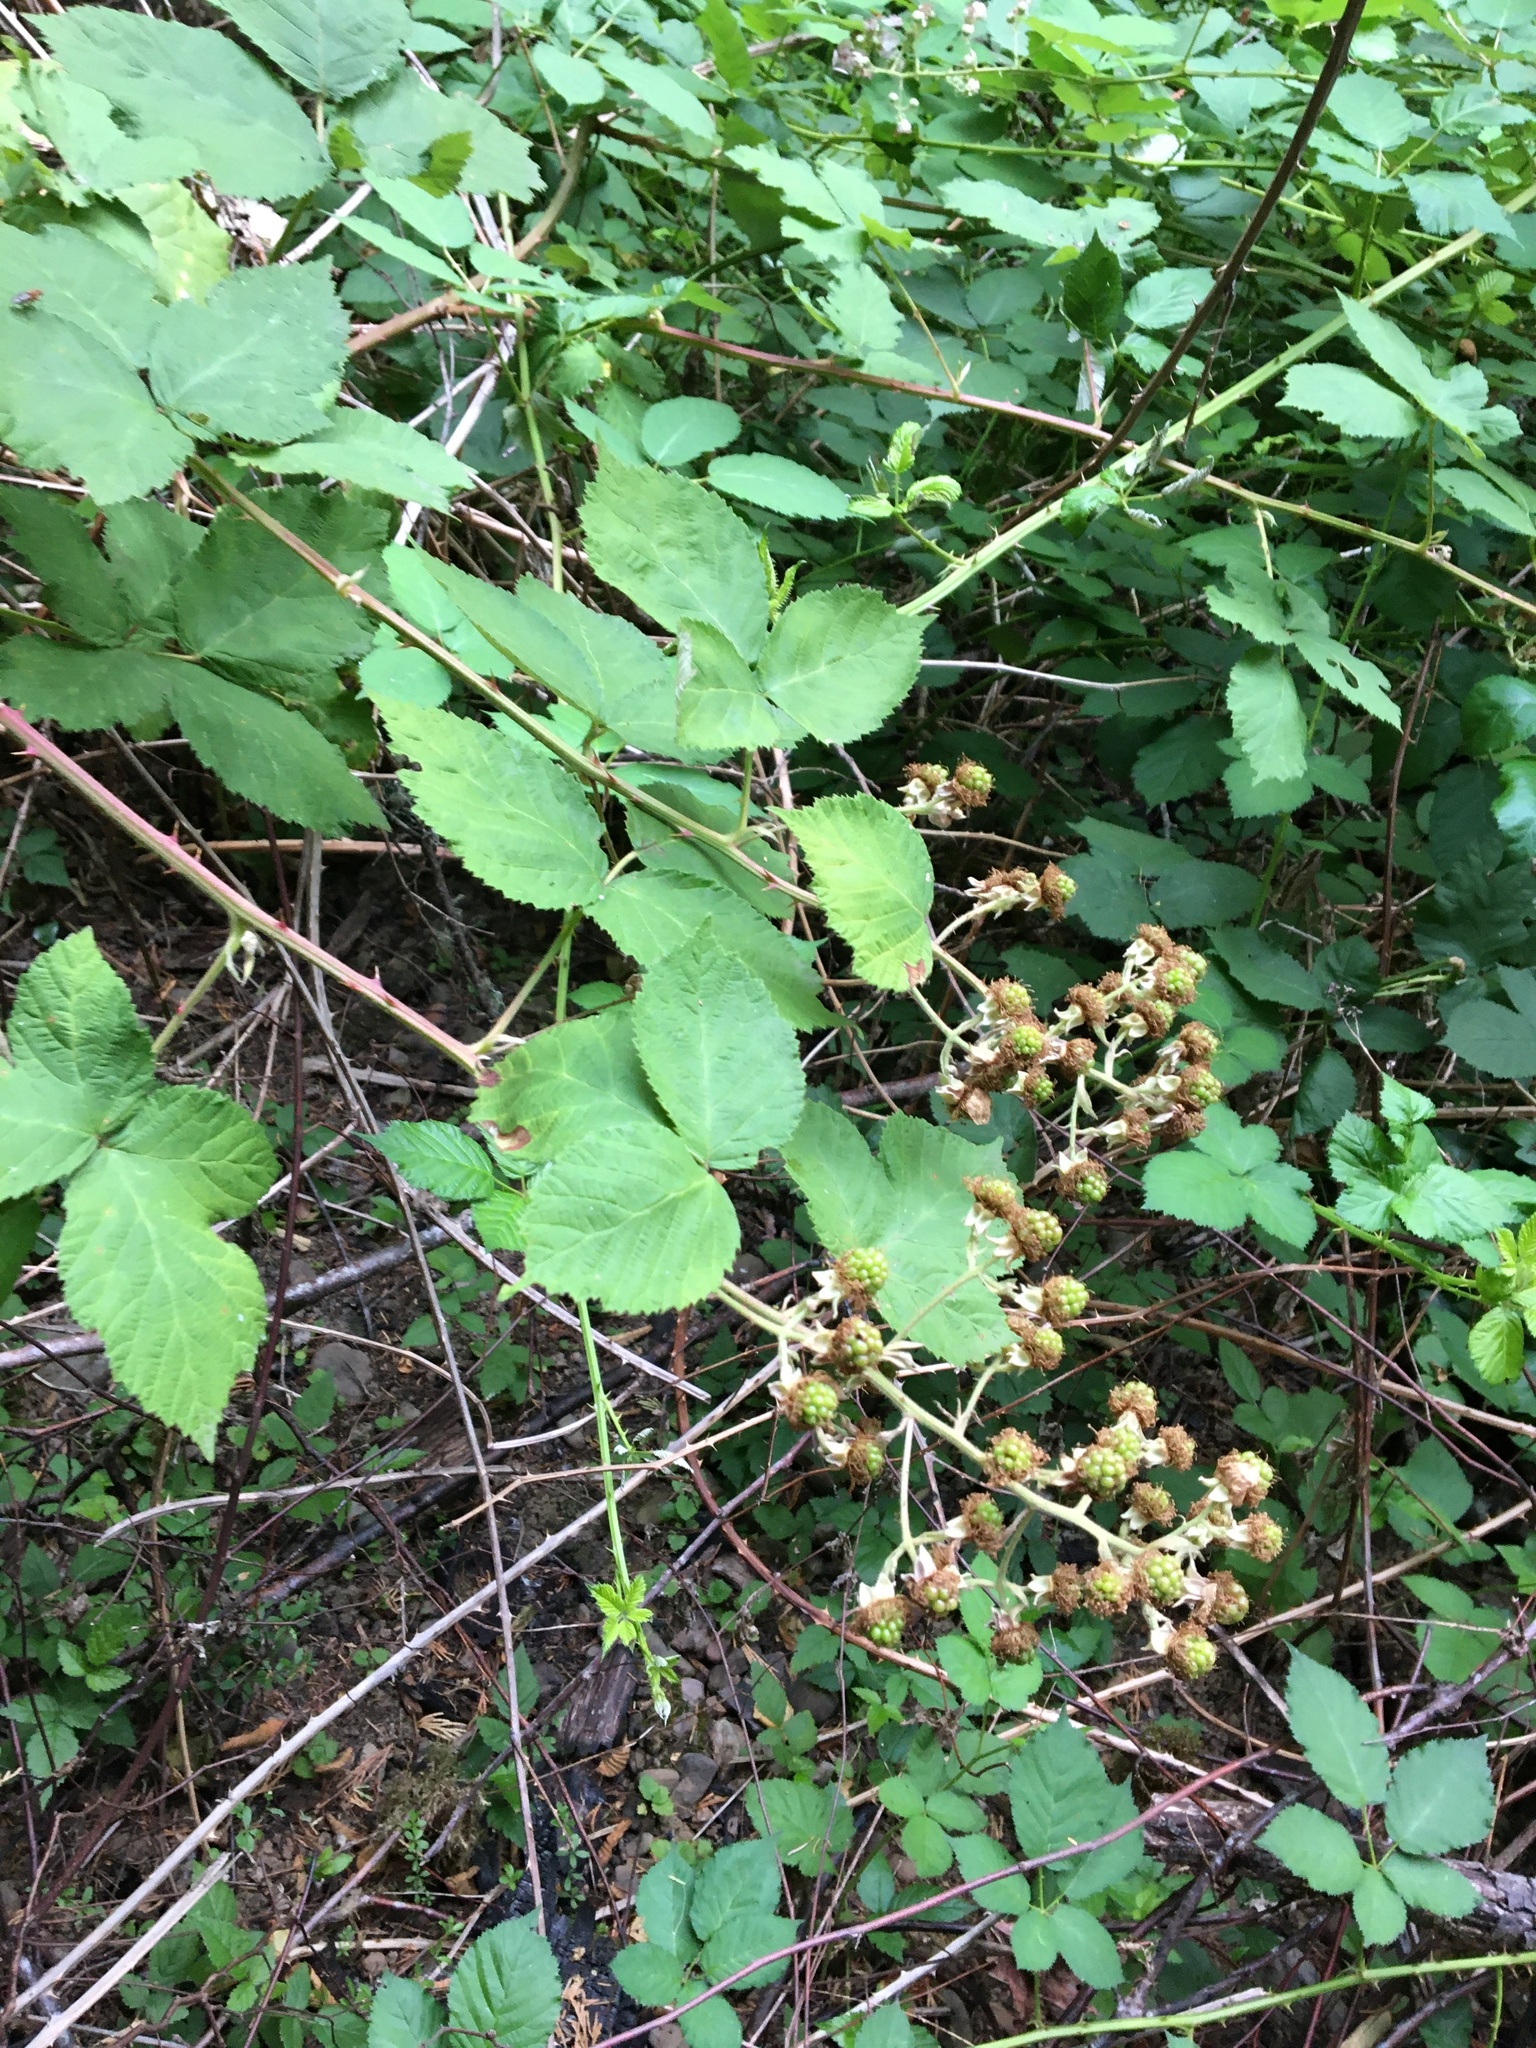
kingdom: Plantae
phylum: Tracheophyta
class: Magnoliopsida
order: Rosales
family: Rosaceae
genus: Rubus
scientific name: Rubus bifrons
